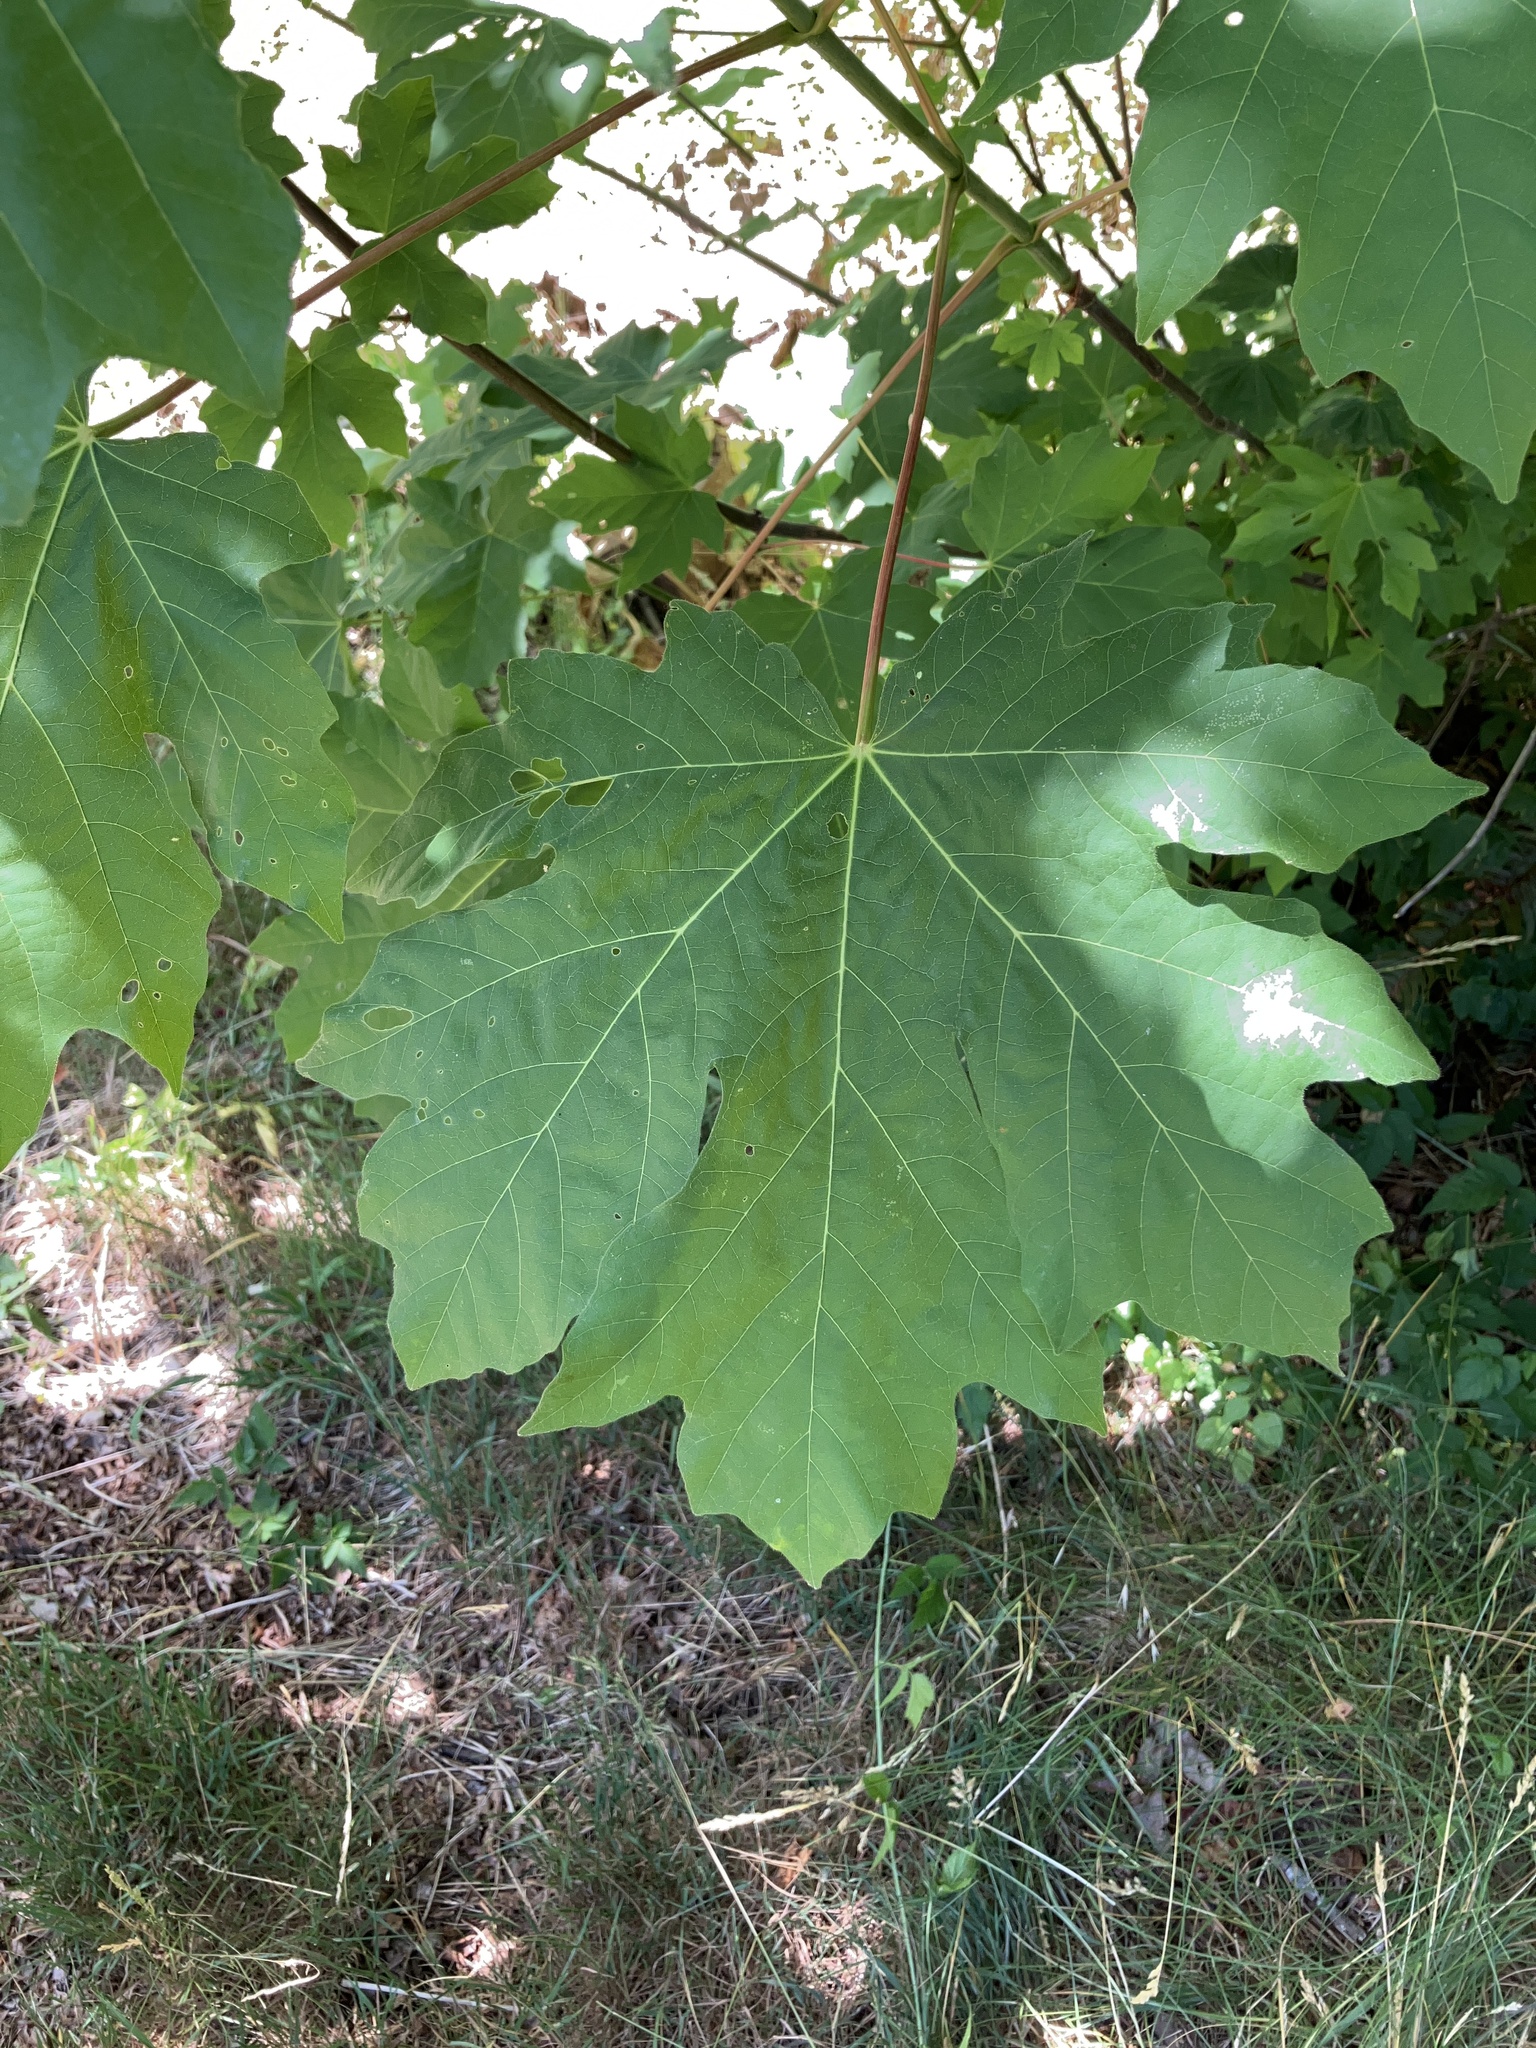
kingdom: Plantae
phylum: Tracheophyta
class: Magnoliopsida
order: Sapindales
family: Sapindaceae
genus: Acer
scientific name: Acer macrophyllum
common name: Oregon maple
